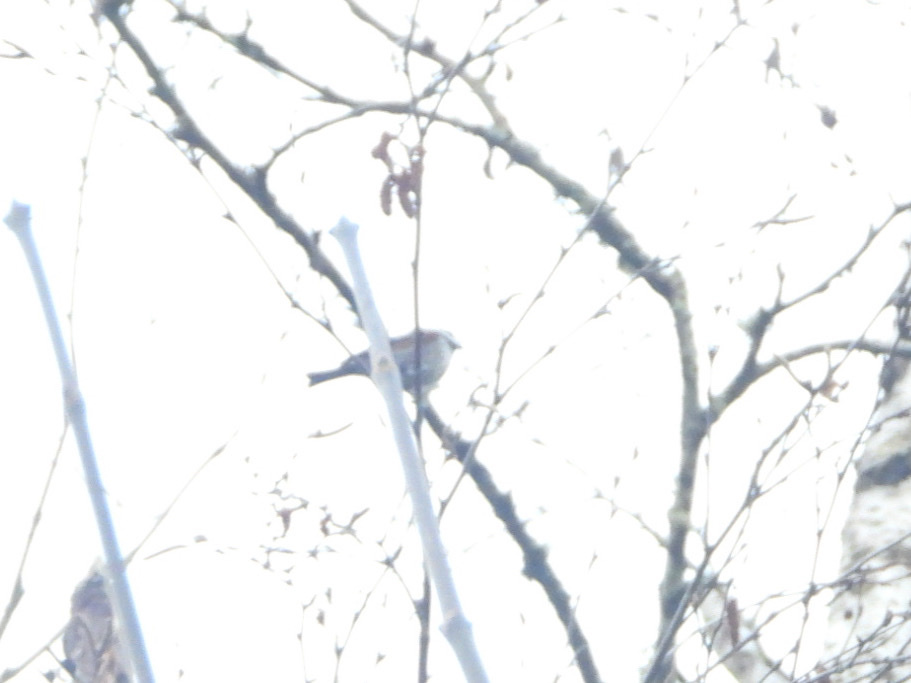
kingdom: Animalia
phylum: Chordata
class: Aves
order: Passeriformes
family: Paridae
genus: Poecile
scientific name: Poecile rufescens
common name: Chestnut-backed chickadee
